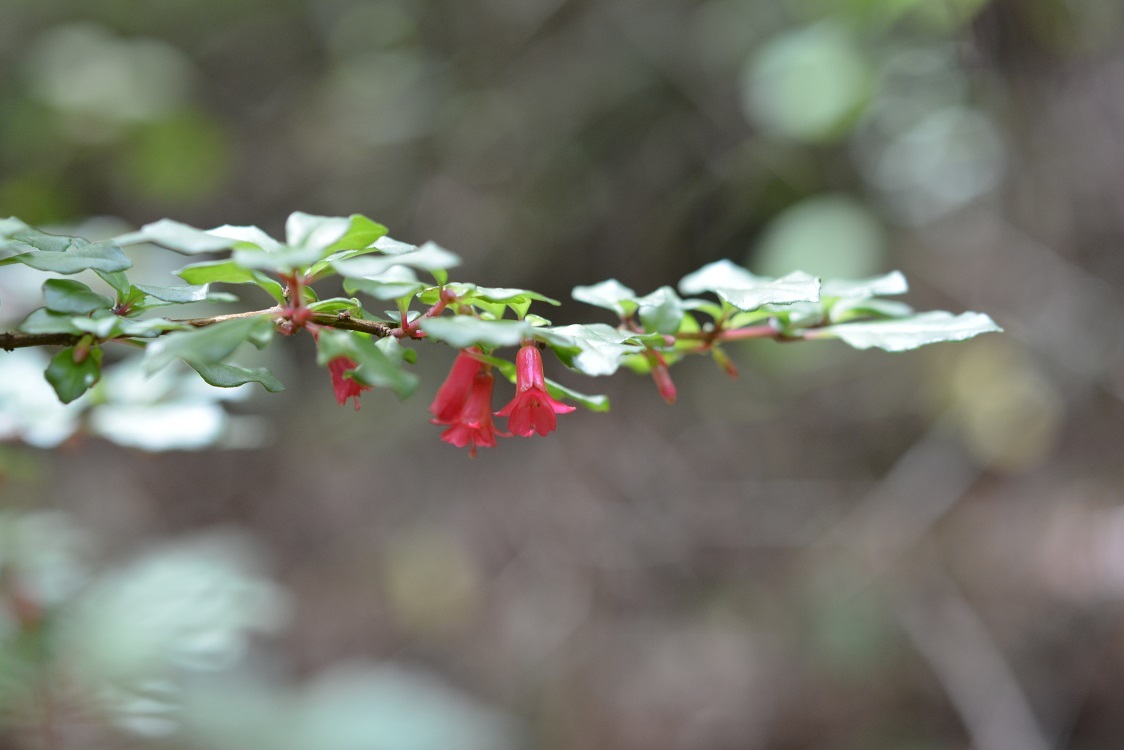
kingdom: Plantae
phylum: Tracheophyta
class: Magnoliopsida
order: Myrtales
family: Onagraceae
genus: Fuchsia
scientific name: Fuchsia thymifolia
